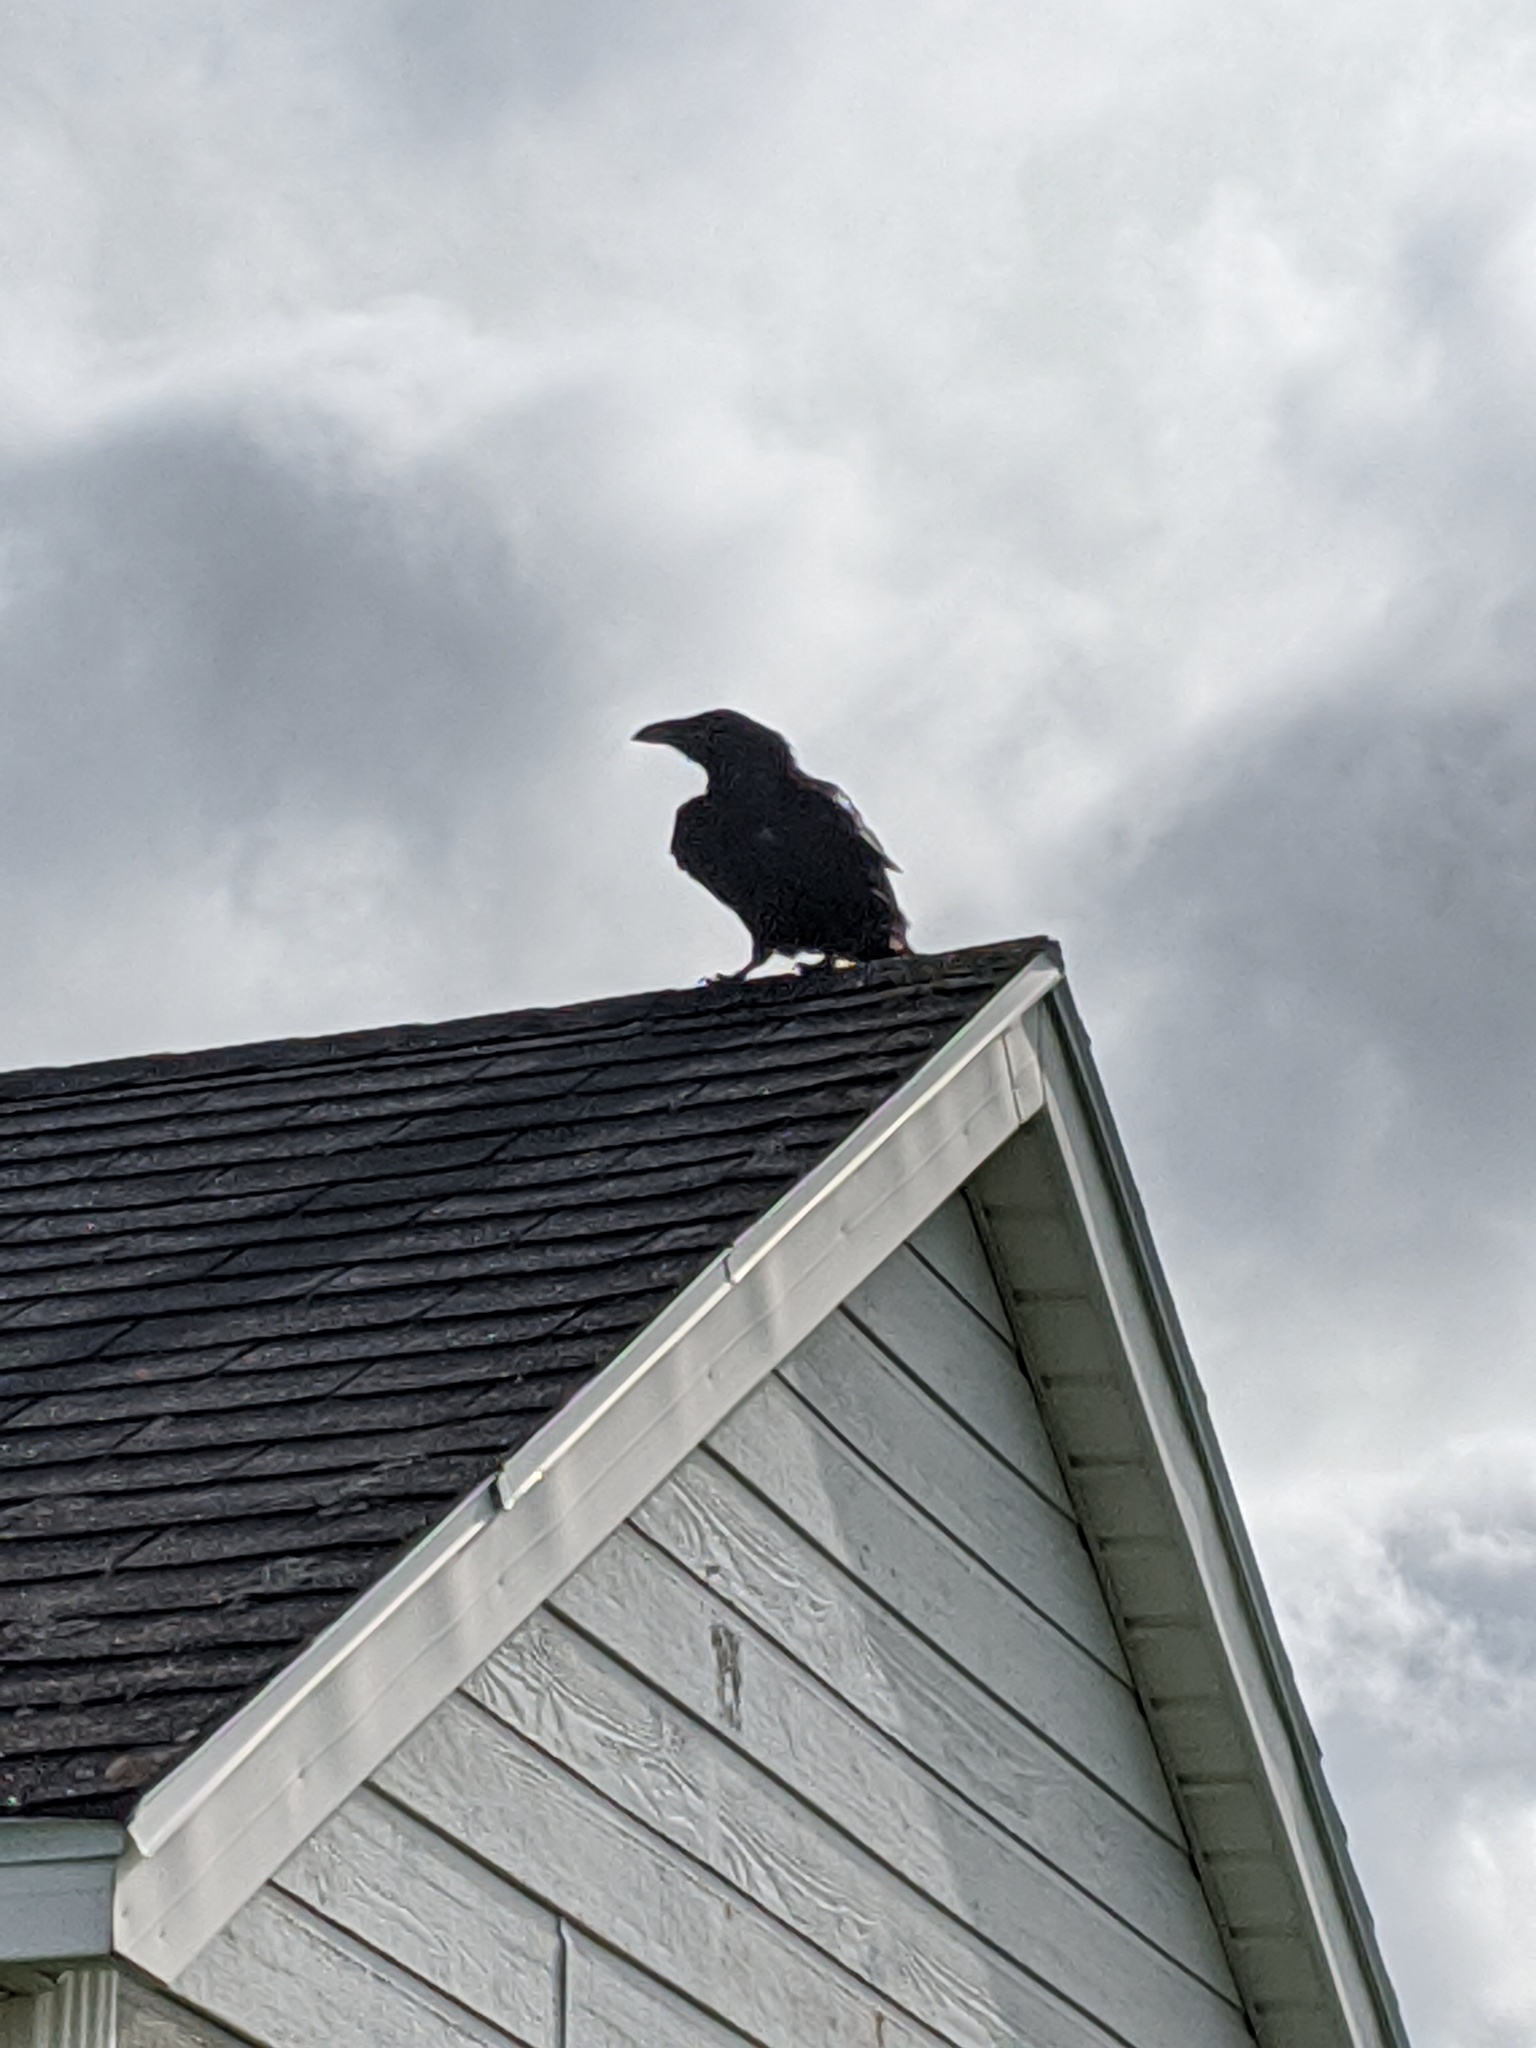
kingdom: Animalia
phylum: Chordata
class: Aves
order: Passeriformes
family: Corvidae
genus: Corvus
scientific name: Corvus corax
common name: Common raven
